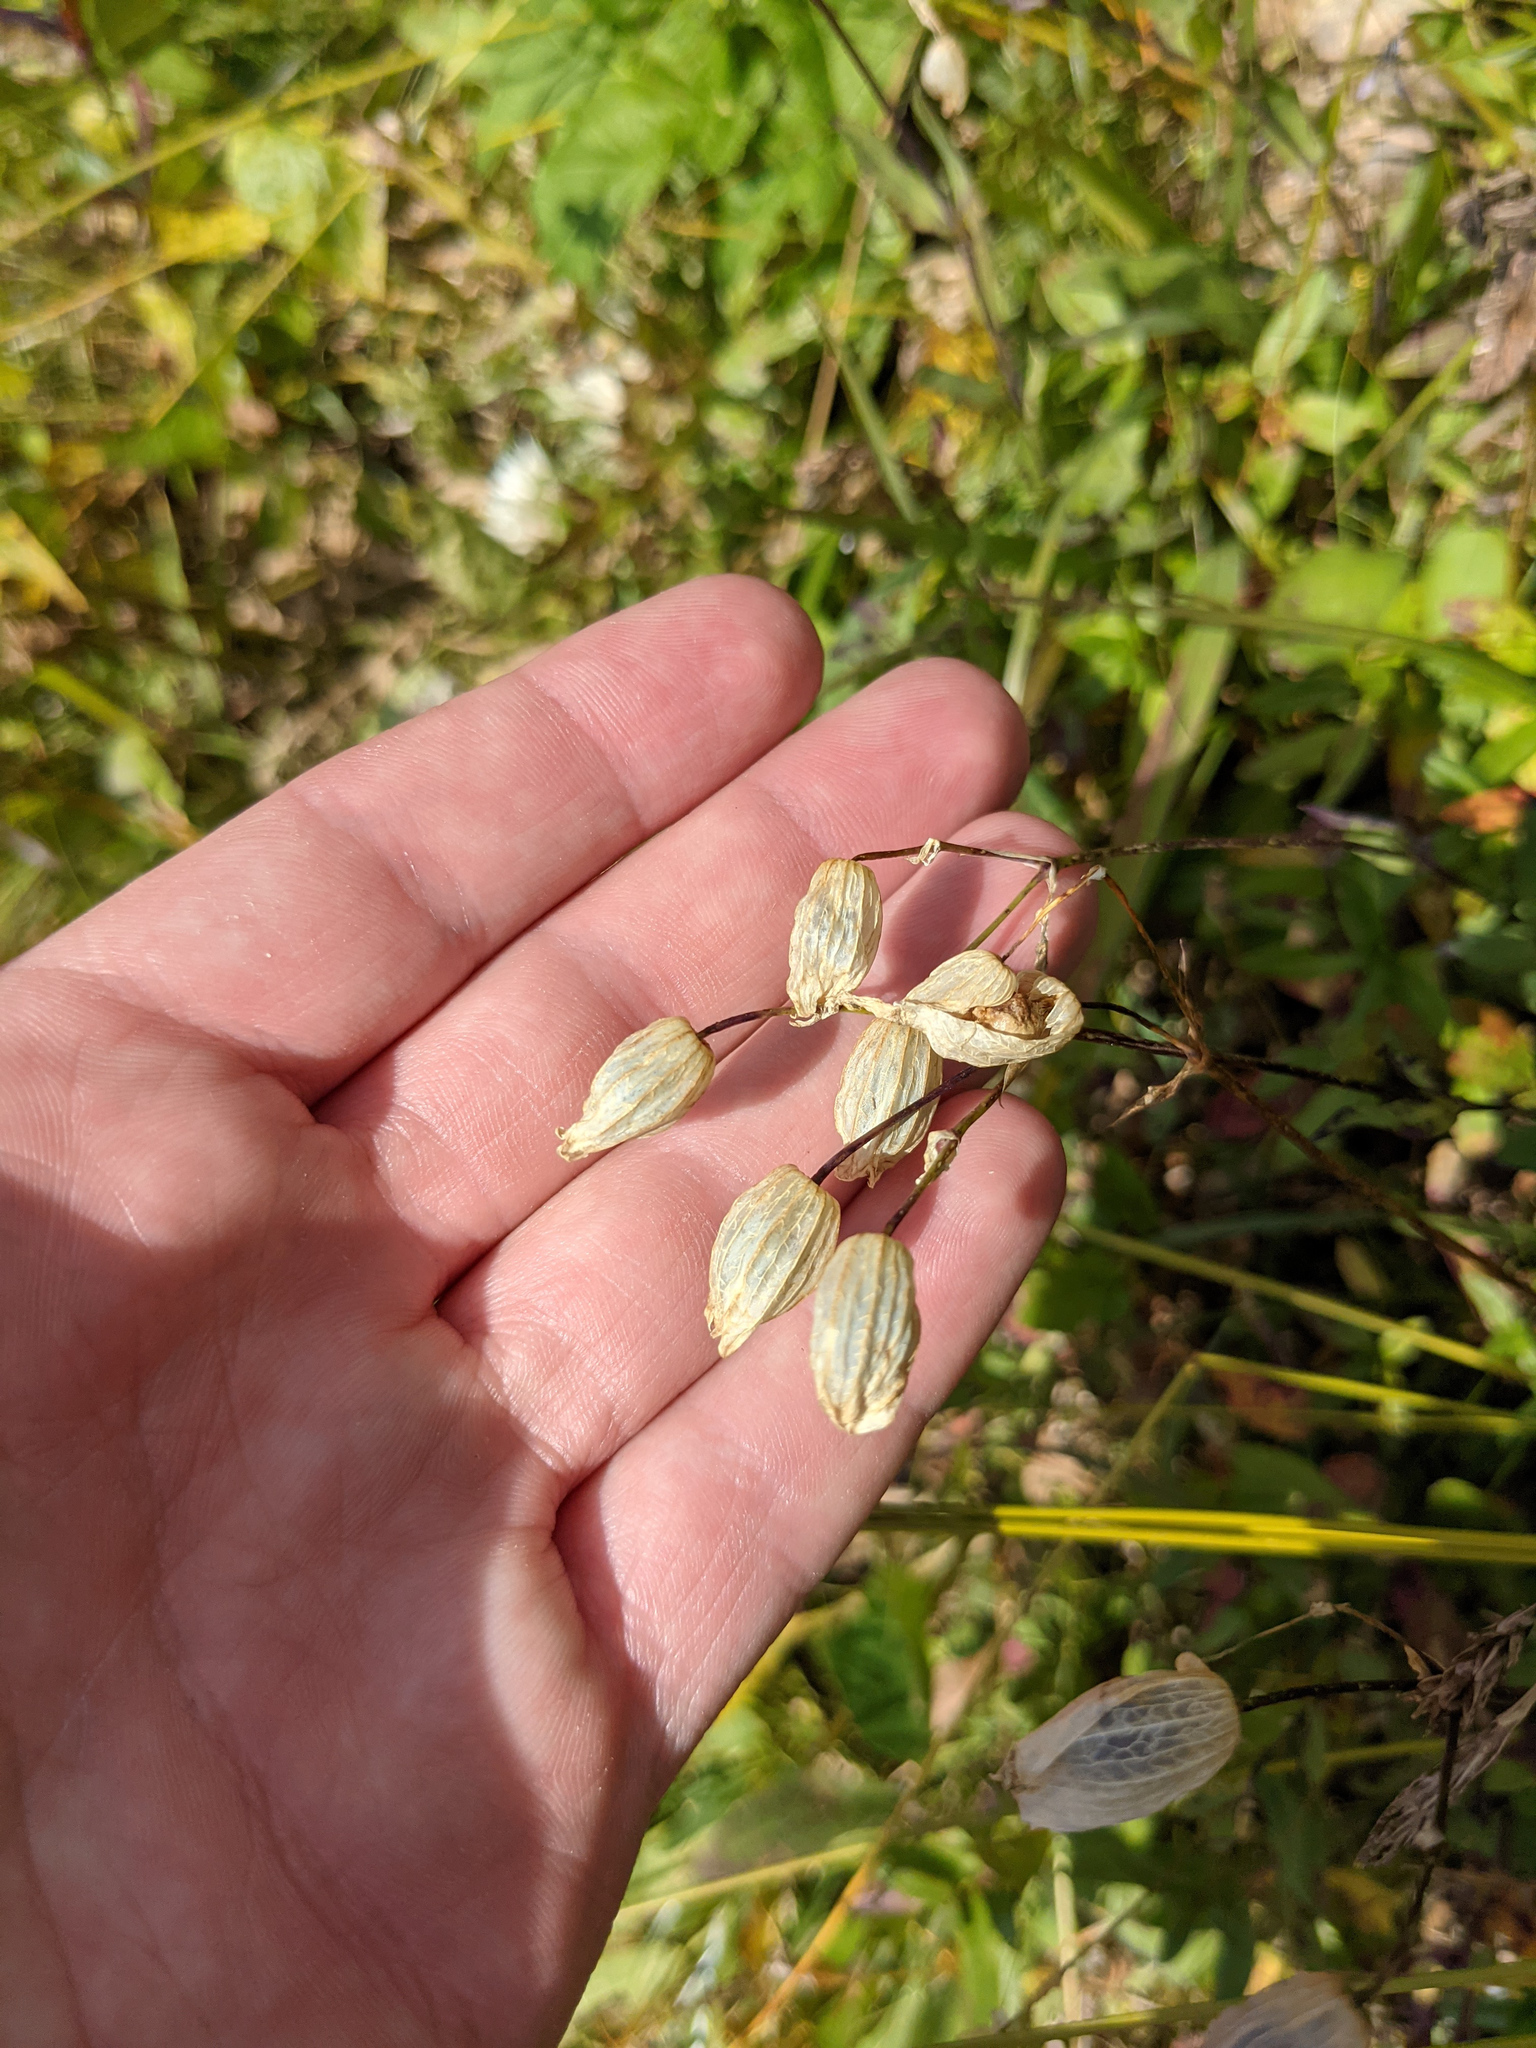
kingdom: Plantae
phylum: Tracheophyta
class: Magnoliopsida
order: Caryophyllales
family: Caryophyllaceae
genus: Silene
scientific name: Silene vulgaris
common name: Bladder campion
